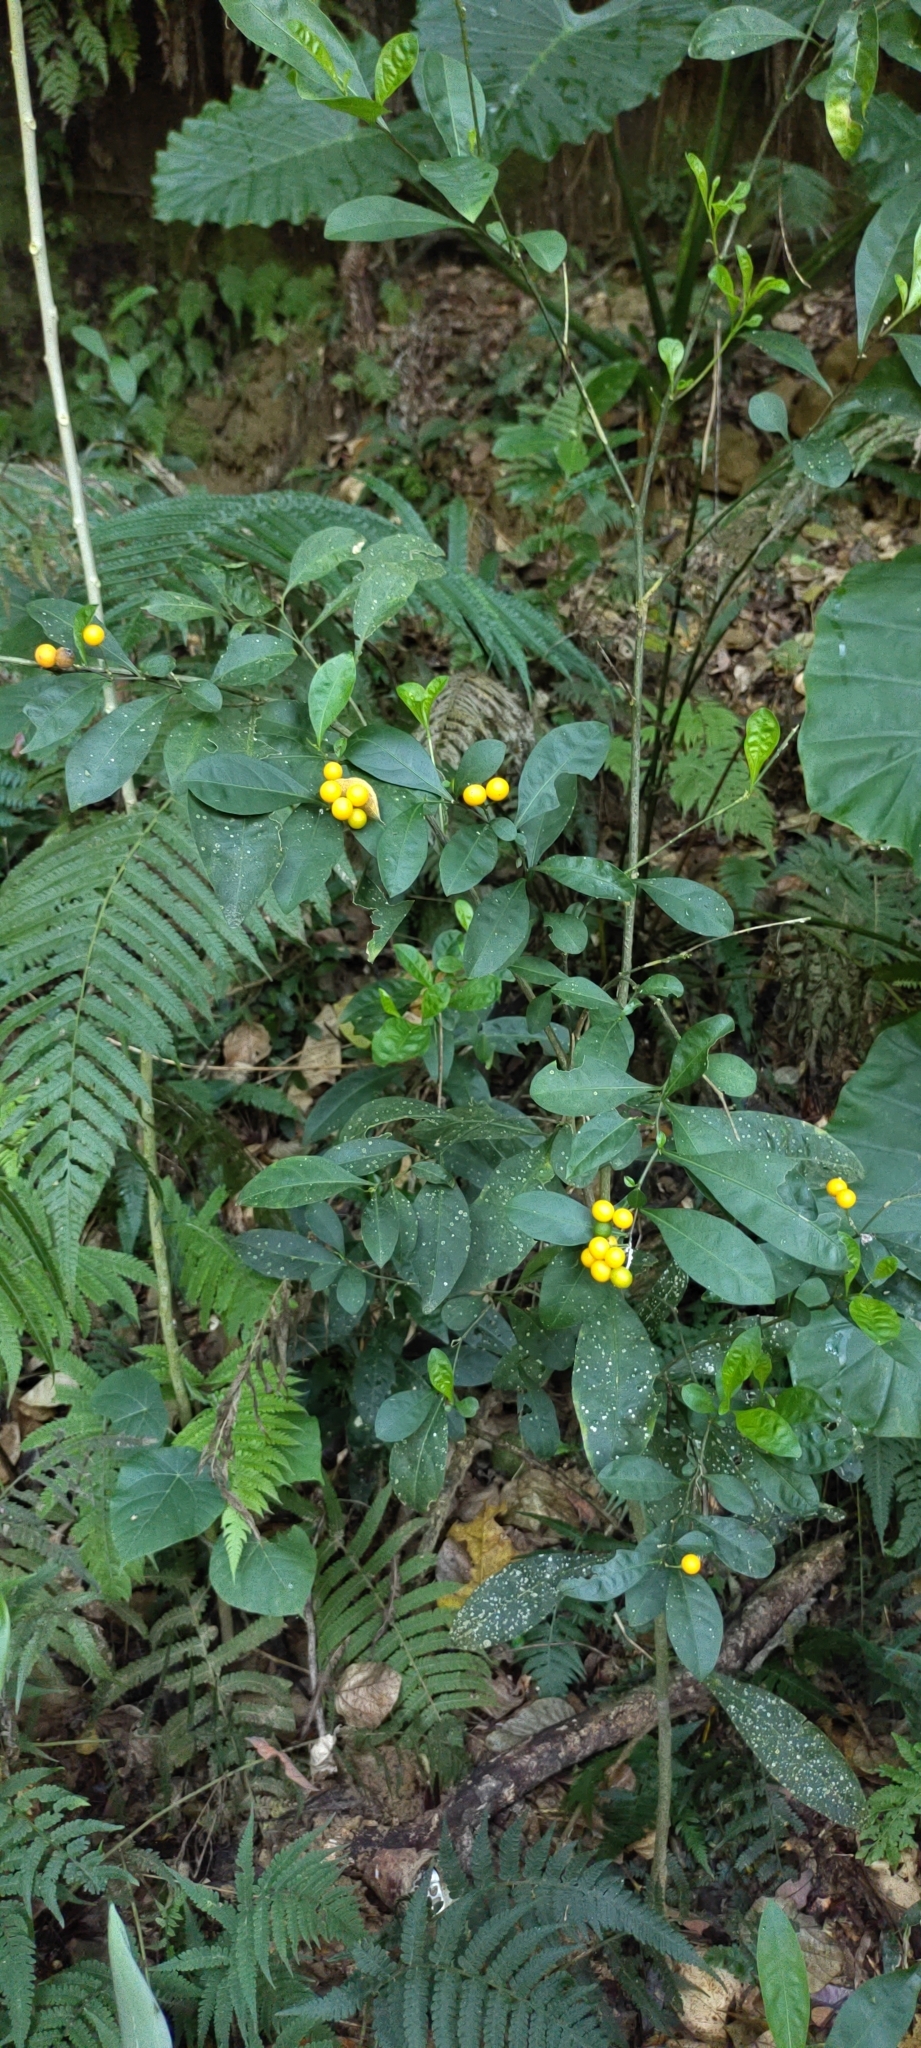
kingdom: Plantae
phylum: Tracheophyta
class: Magnoliopsida
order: Solanales
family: Solanaceae
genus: Solanum
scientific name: Solanum diphyllum
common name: Twoleaf nightshade
